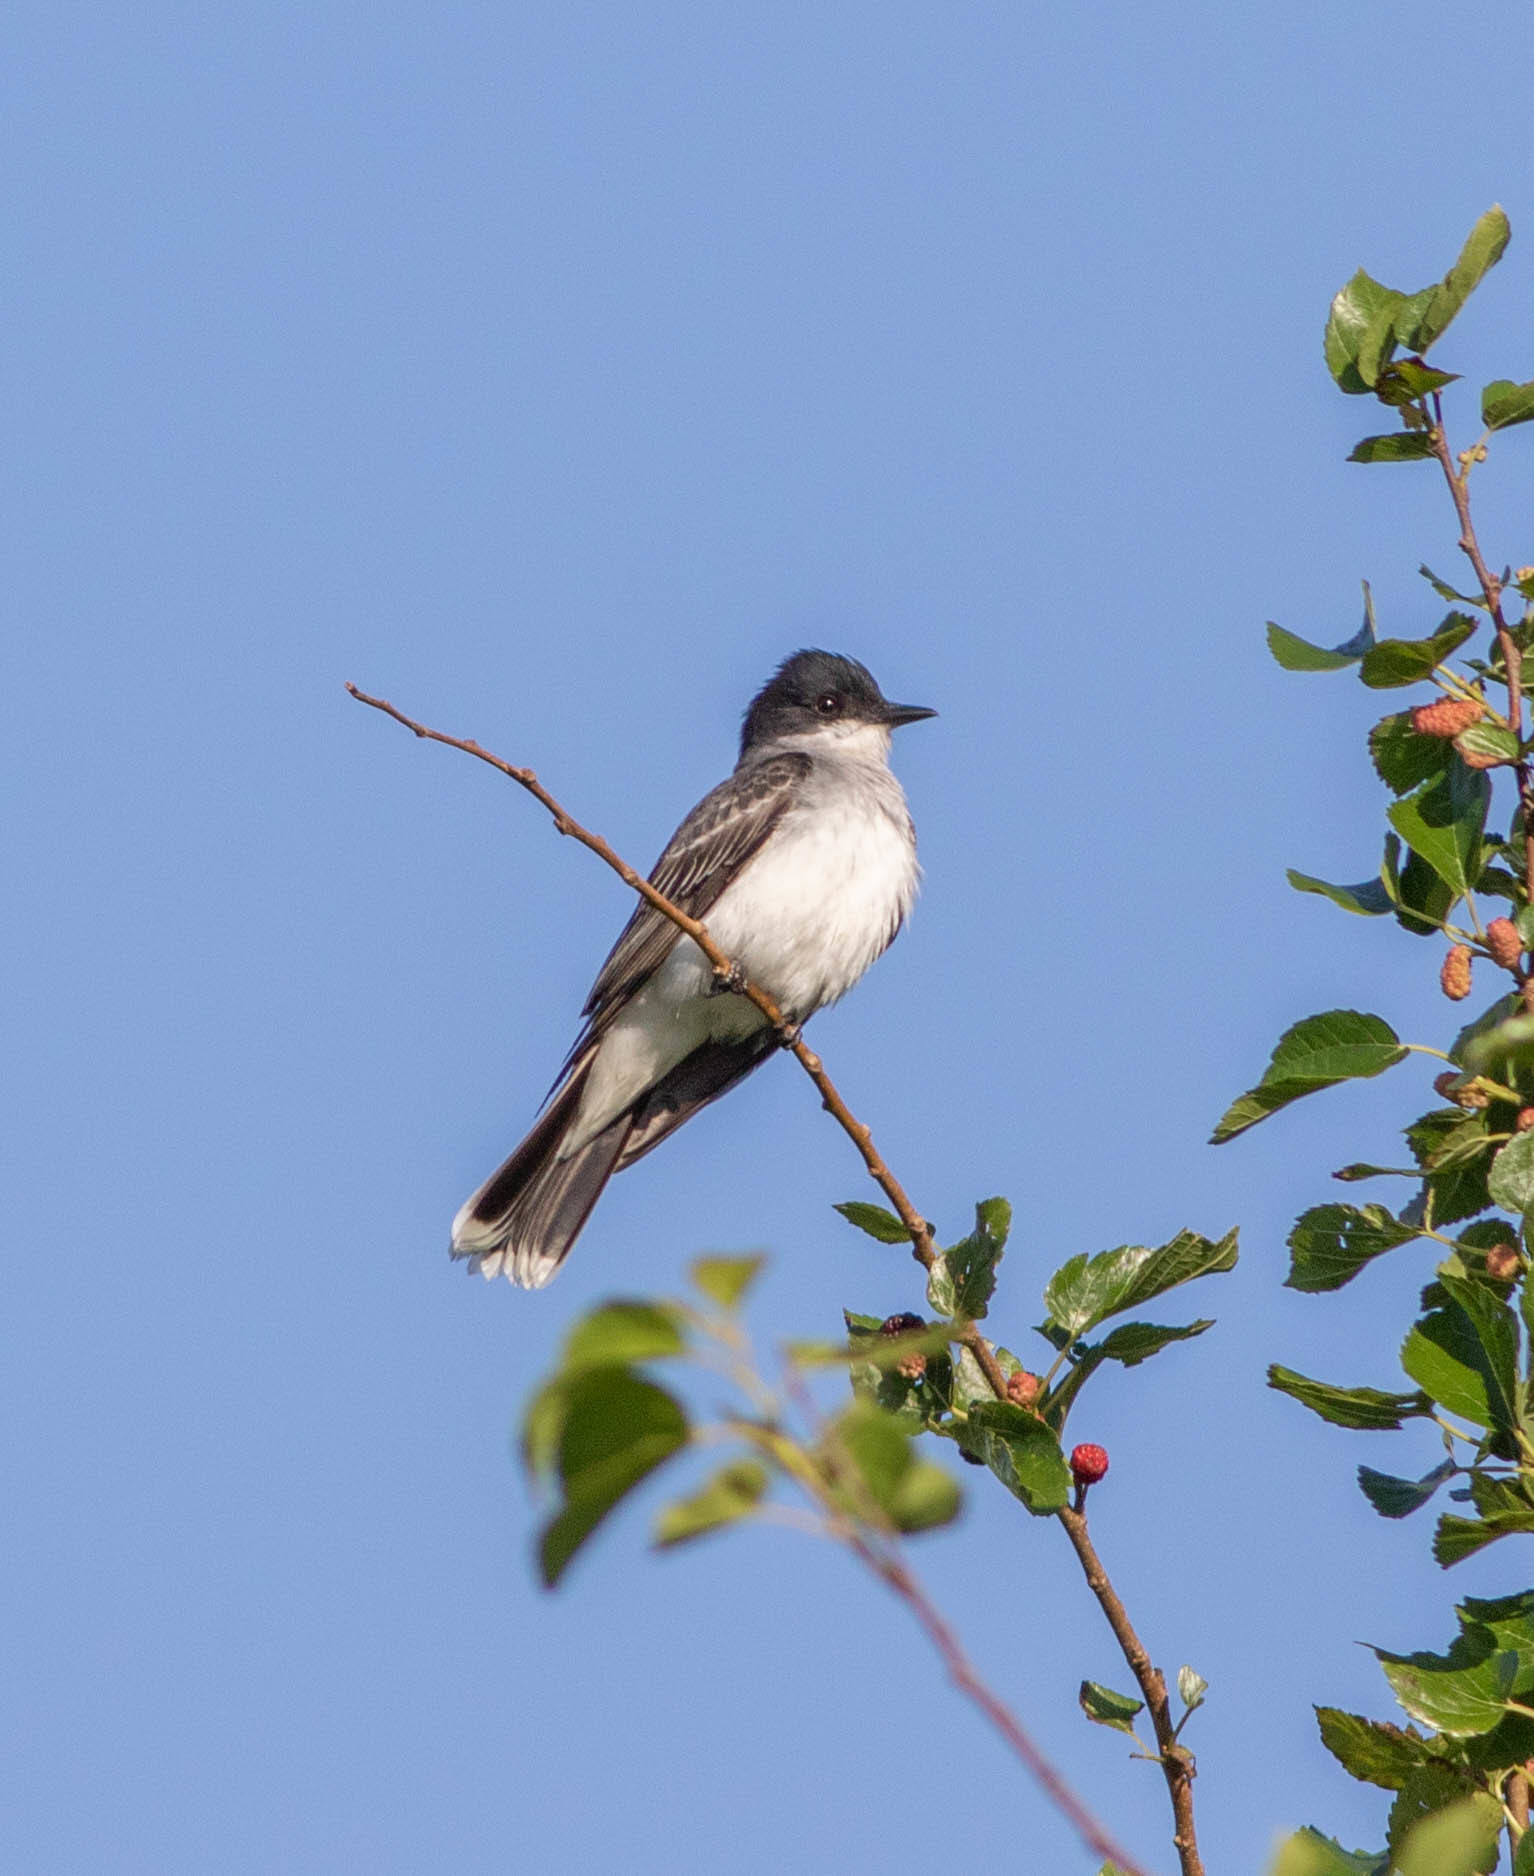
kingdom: Animalia
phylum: Chordata
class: Aves
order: Passeriformes
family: Tyrannidae
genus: Tyrannus
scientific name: Tyrannus tyrannus
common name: Eastern kingbird
